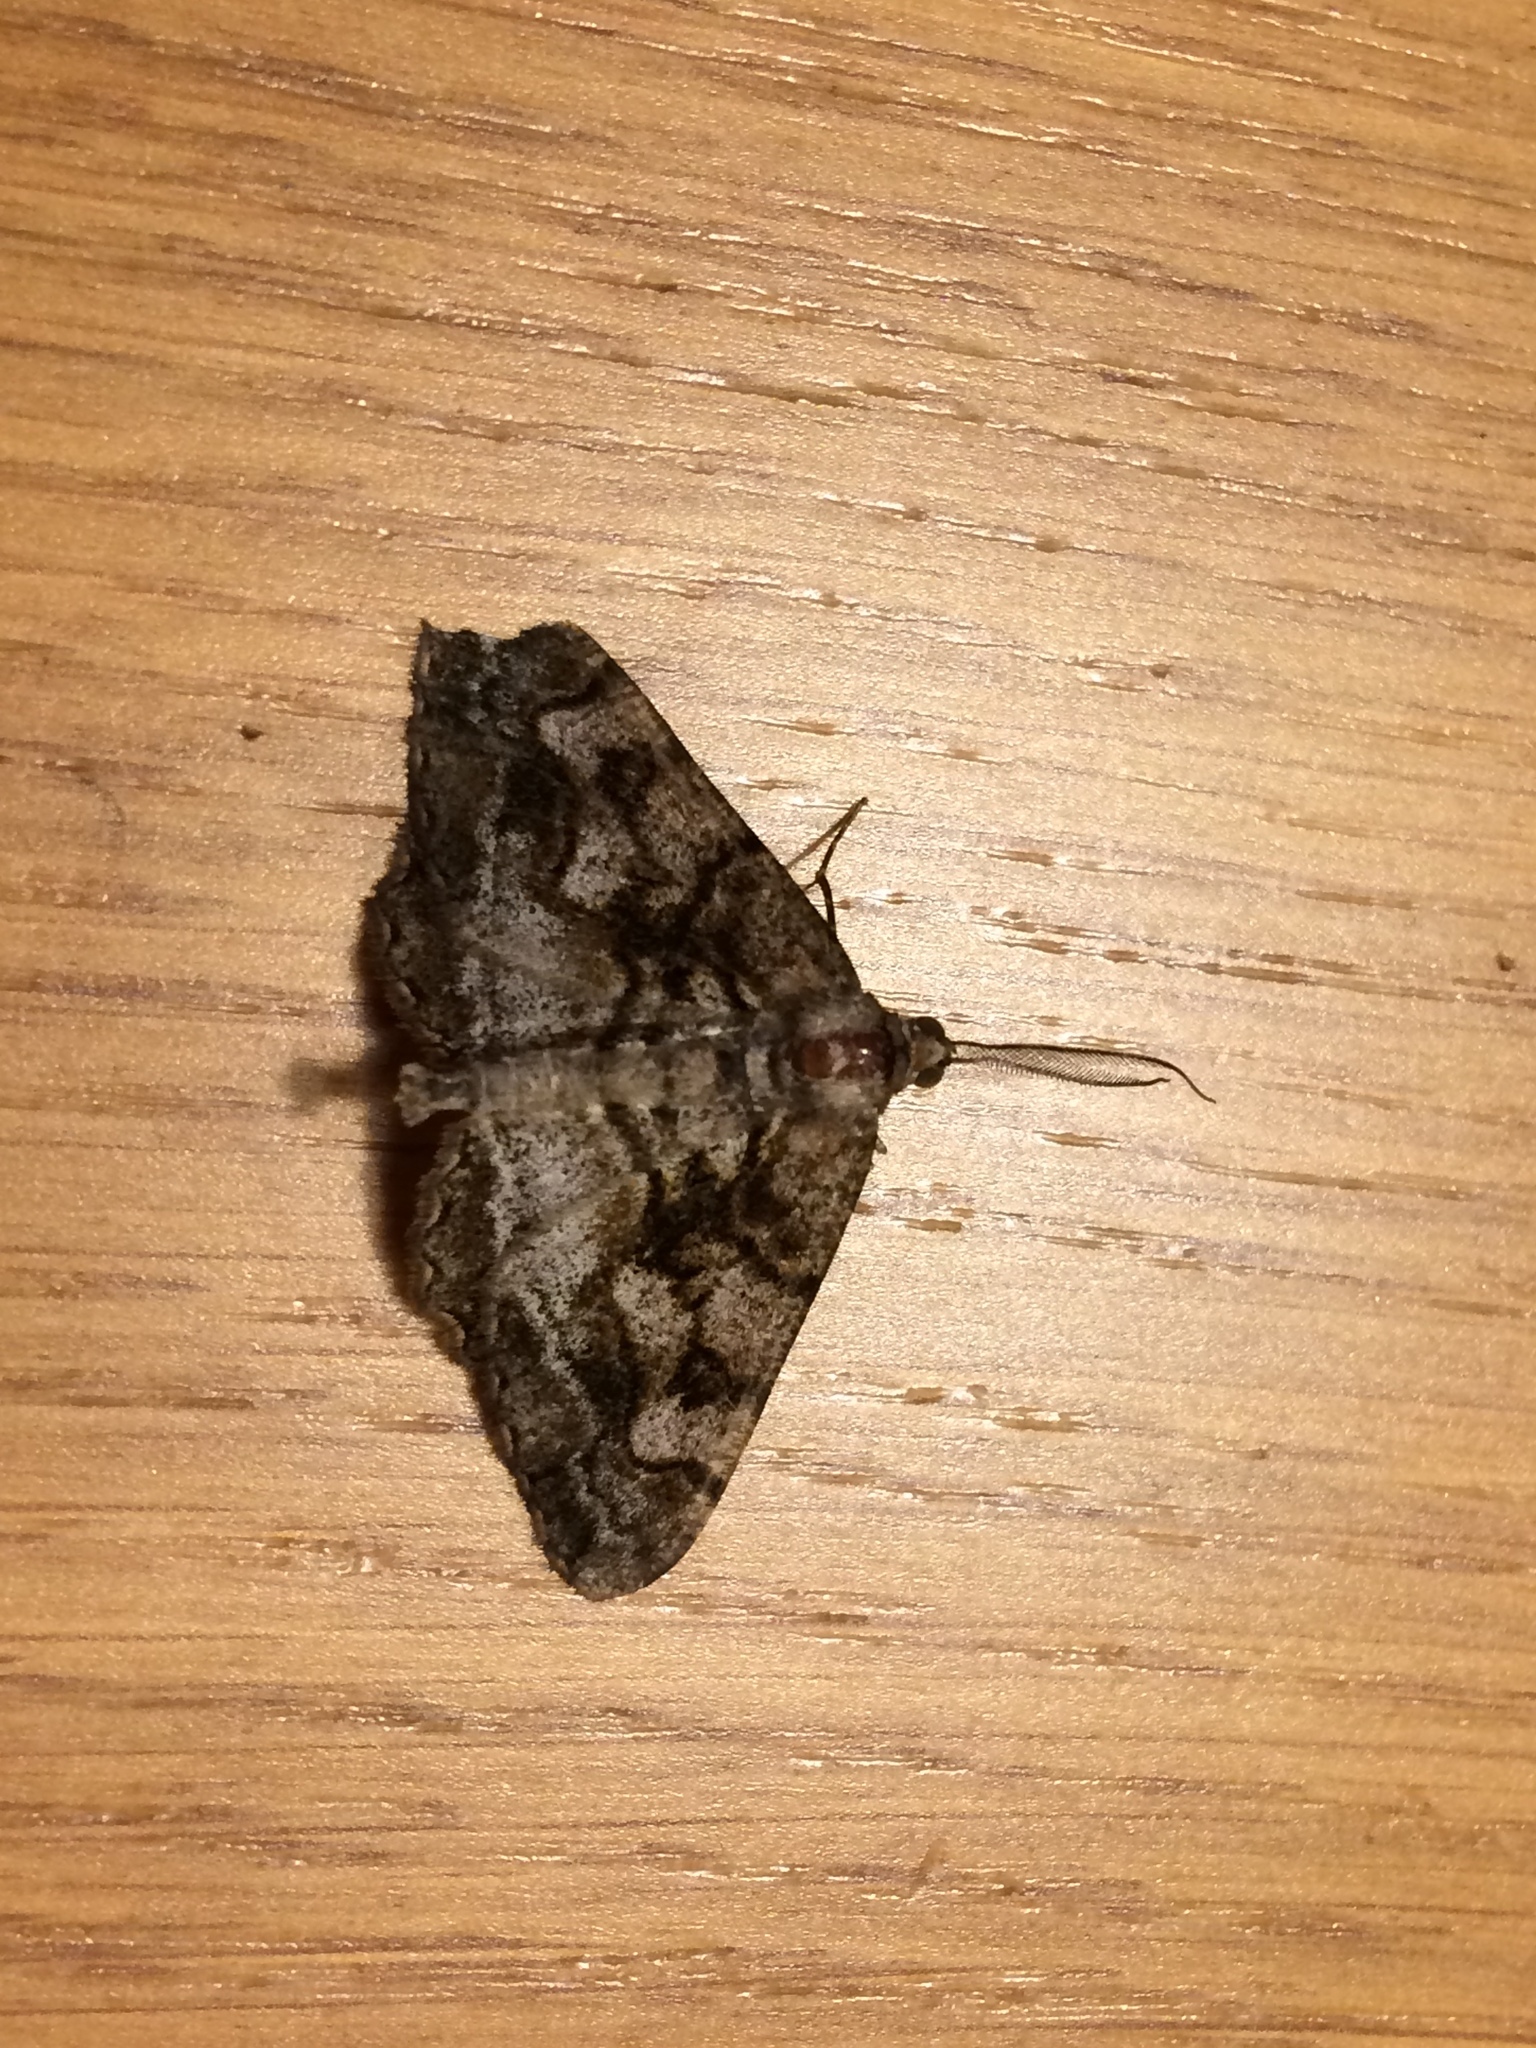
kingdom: Animalia
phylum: Arthropoda
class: Insecta
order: Lepidoptera
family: Geometridae
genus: Alcis
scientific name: Alcis repandata
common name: Mottled beauty
